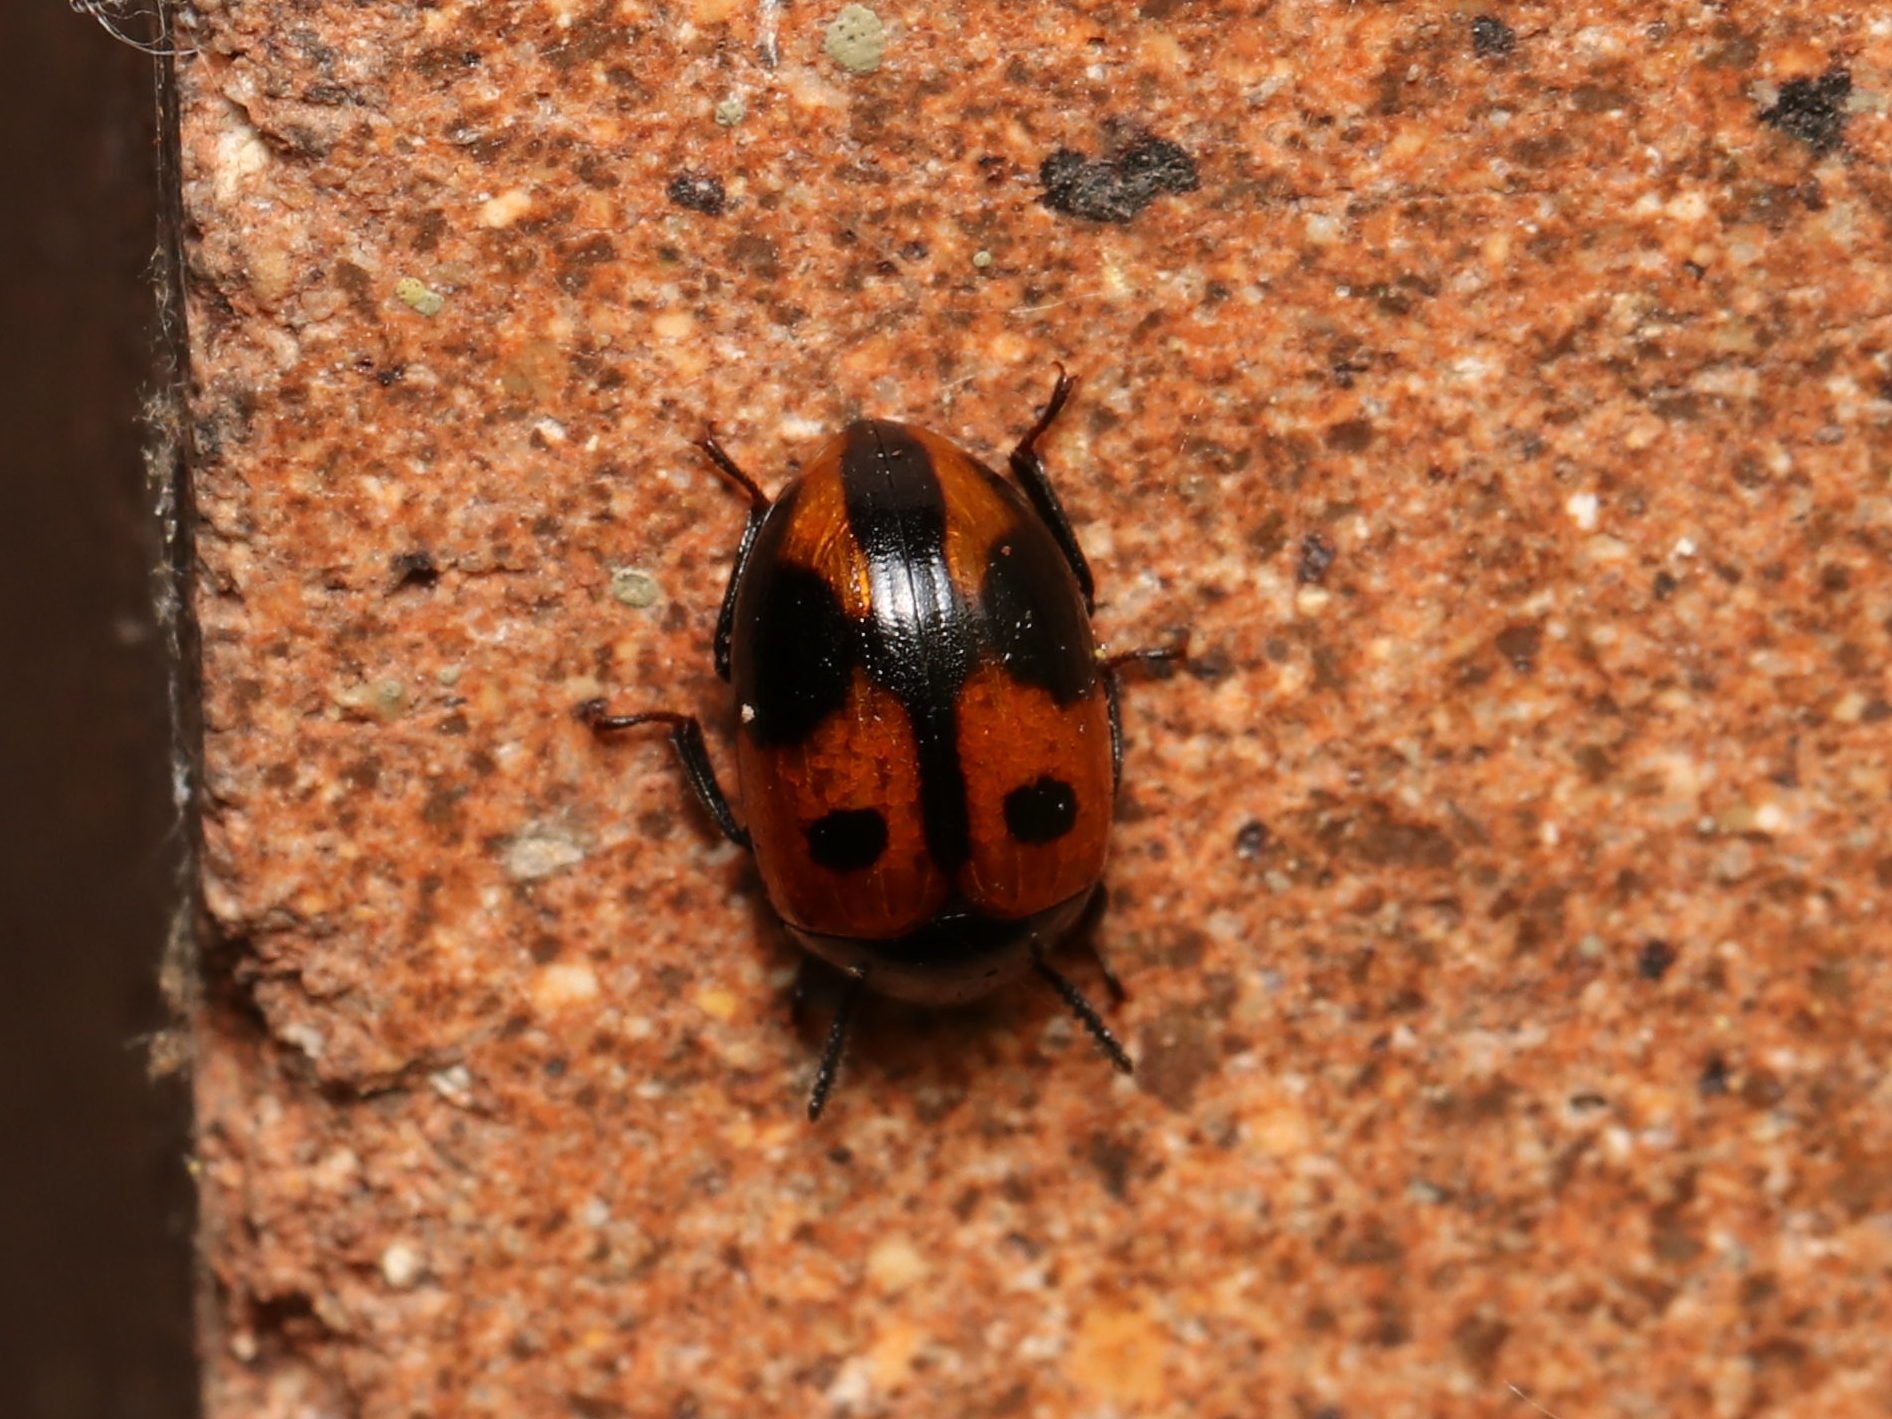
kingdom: Animalia
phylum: Arthropoda
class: Insecta
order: Coleoptera
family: Tenebrionidae
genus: Diaperis
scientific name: Diaperis maculata
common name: Darkling beetle
